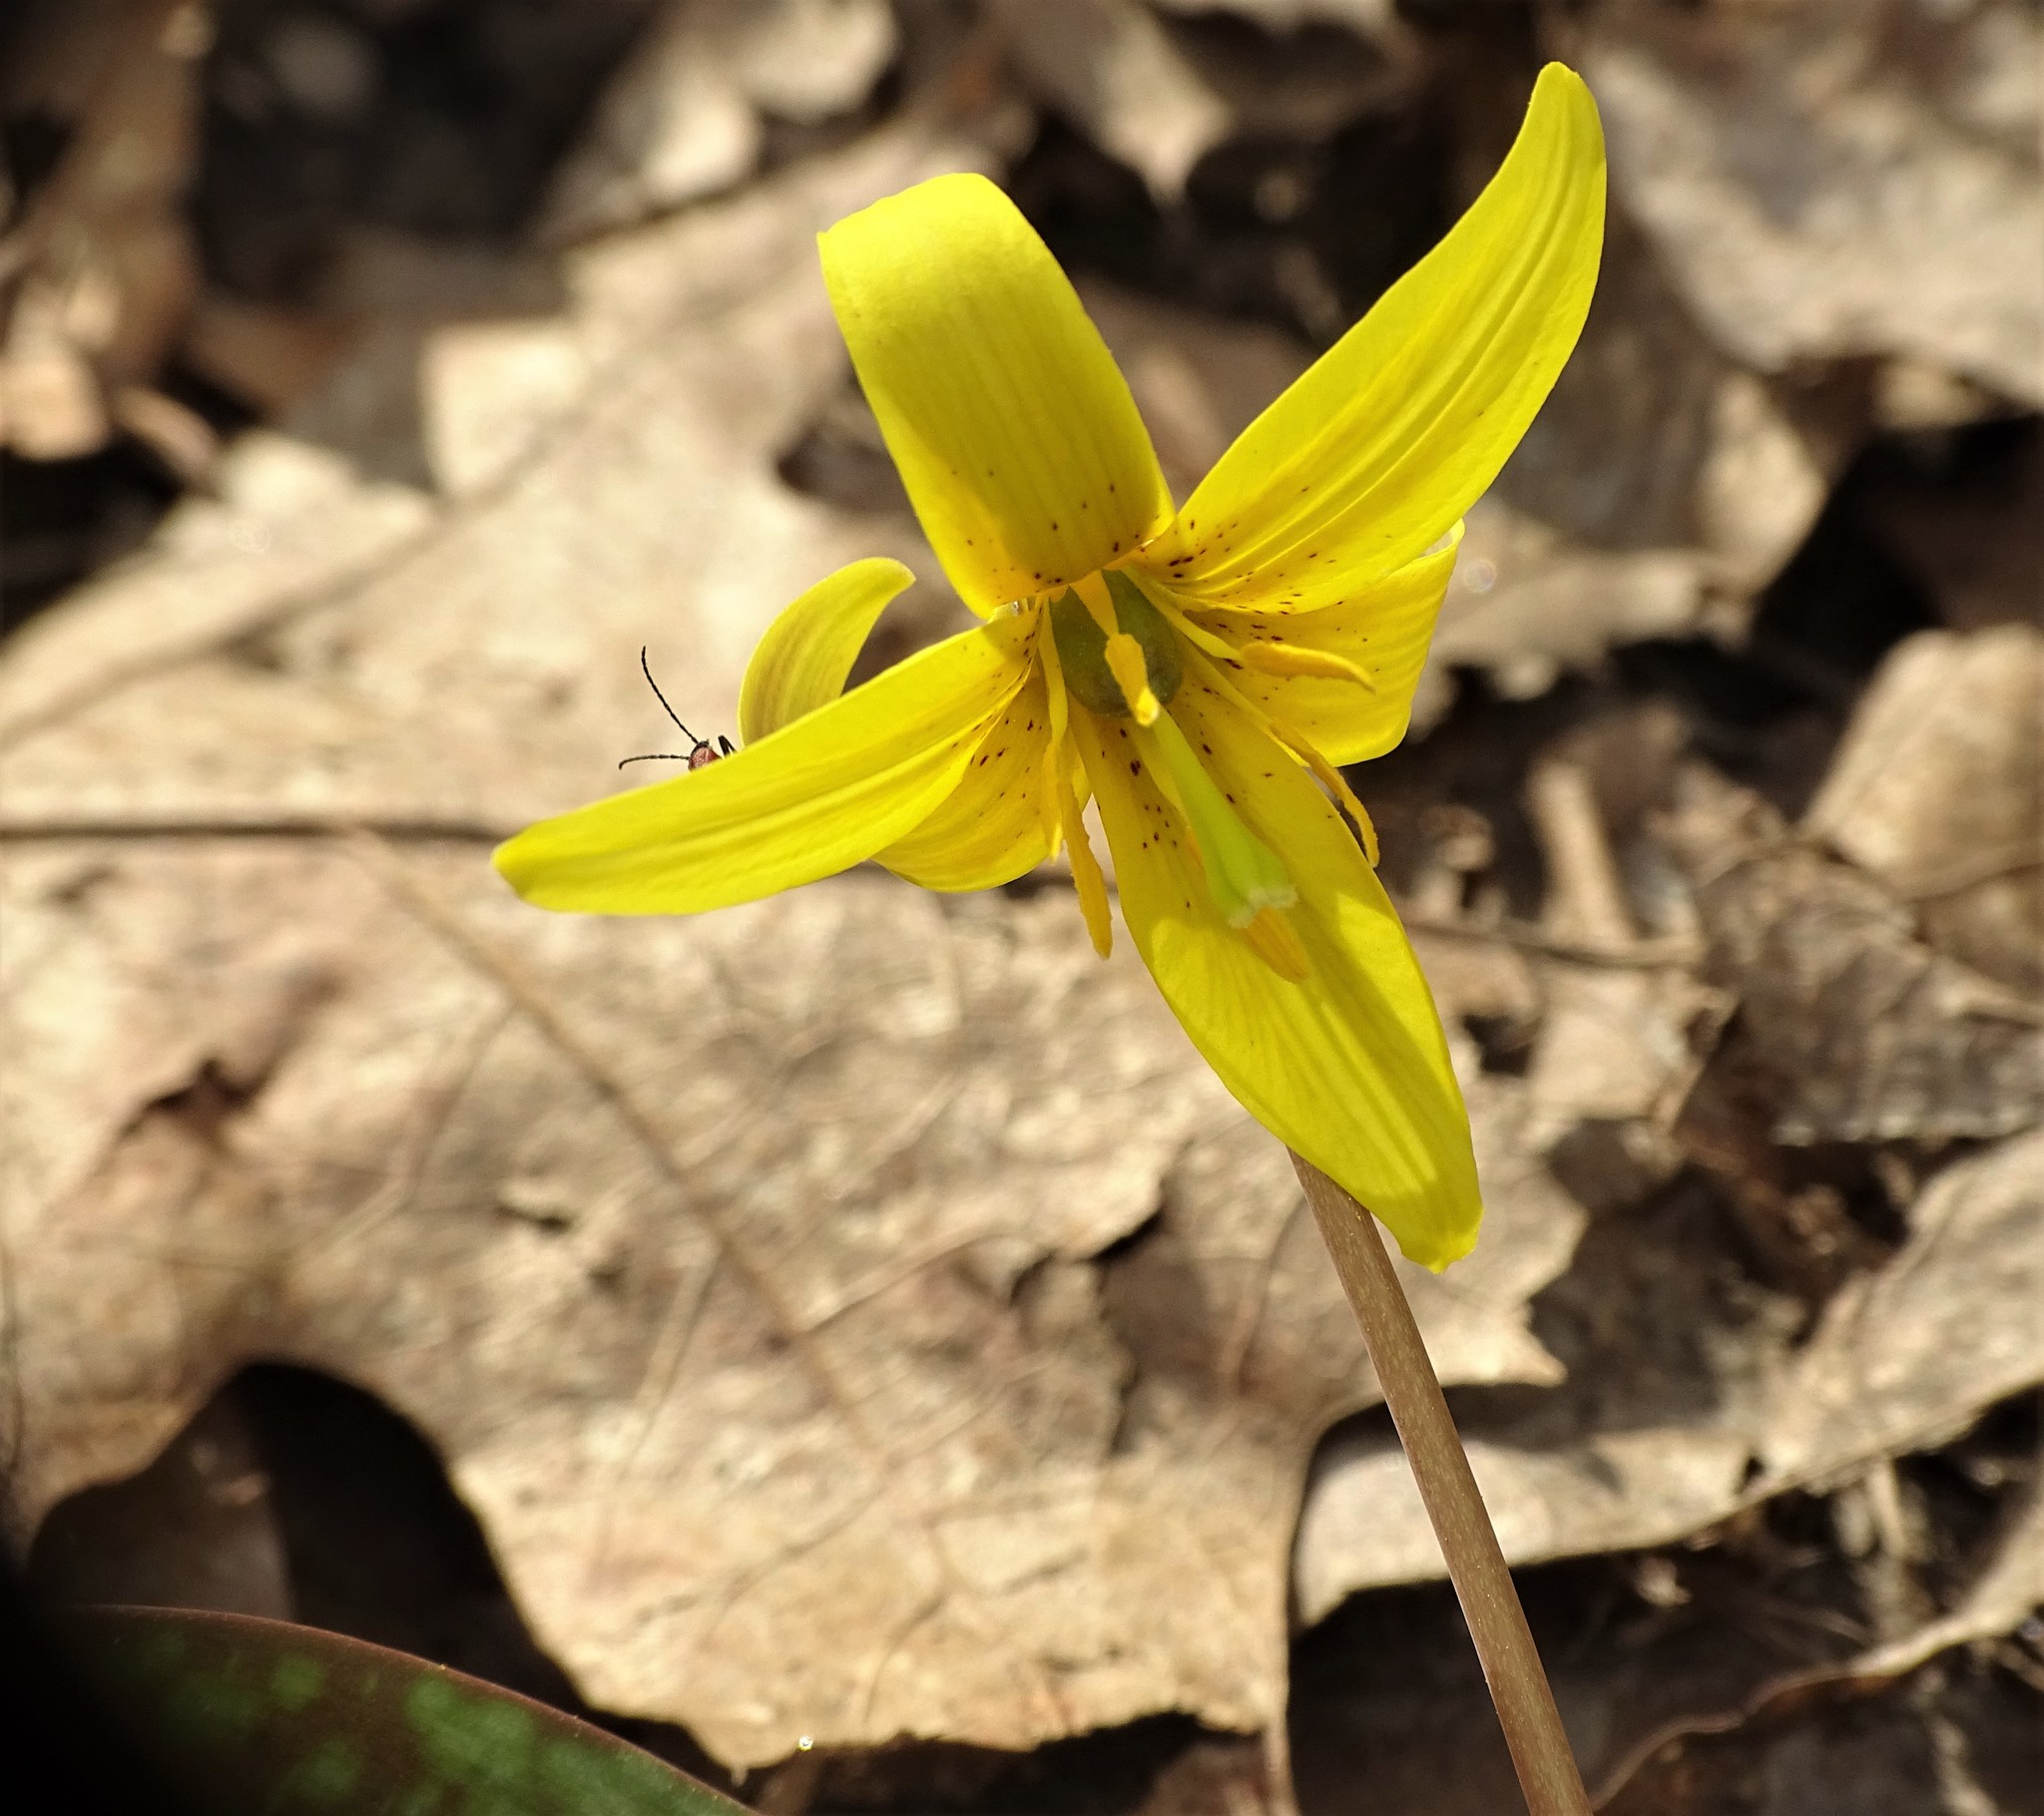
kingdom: Plantae
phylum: Tracheophyta
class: Liliopsida
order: Liliales
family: Liliaceae
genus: Erythronium
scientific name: Erythronium americanum
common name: Yellow adder's-tongue
